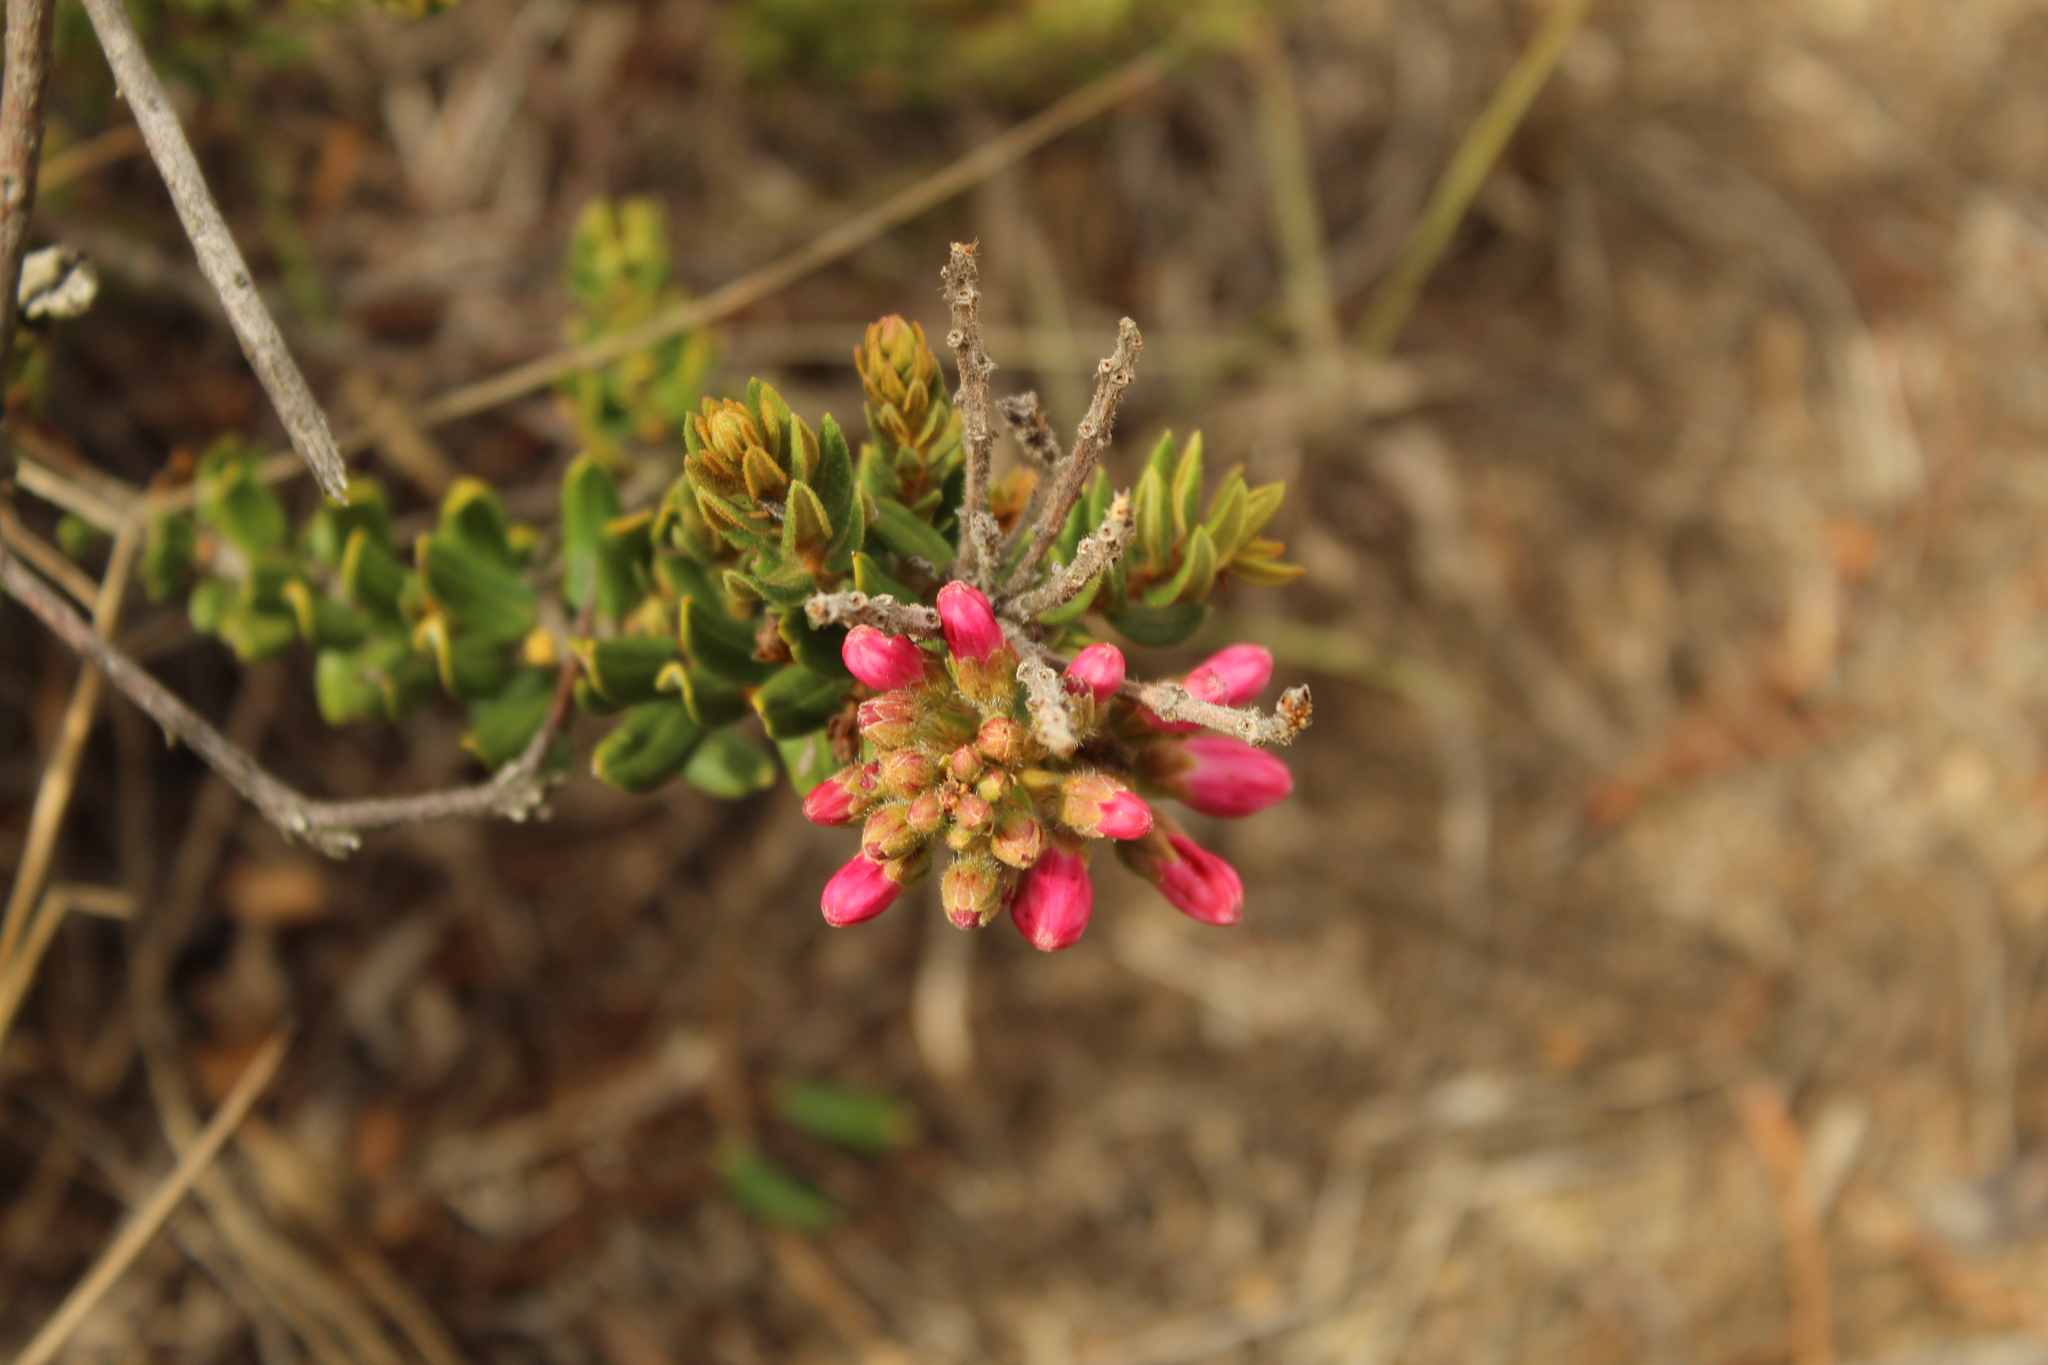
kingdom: Plantae
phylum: Tracheophyta
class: Magnoliopsida
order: Ericales
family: Ericaceae
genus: Bejaria
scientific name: Bejaria resinosa
